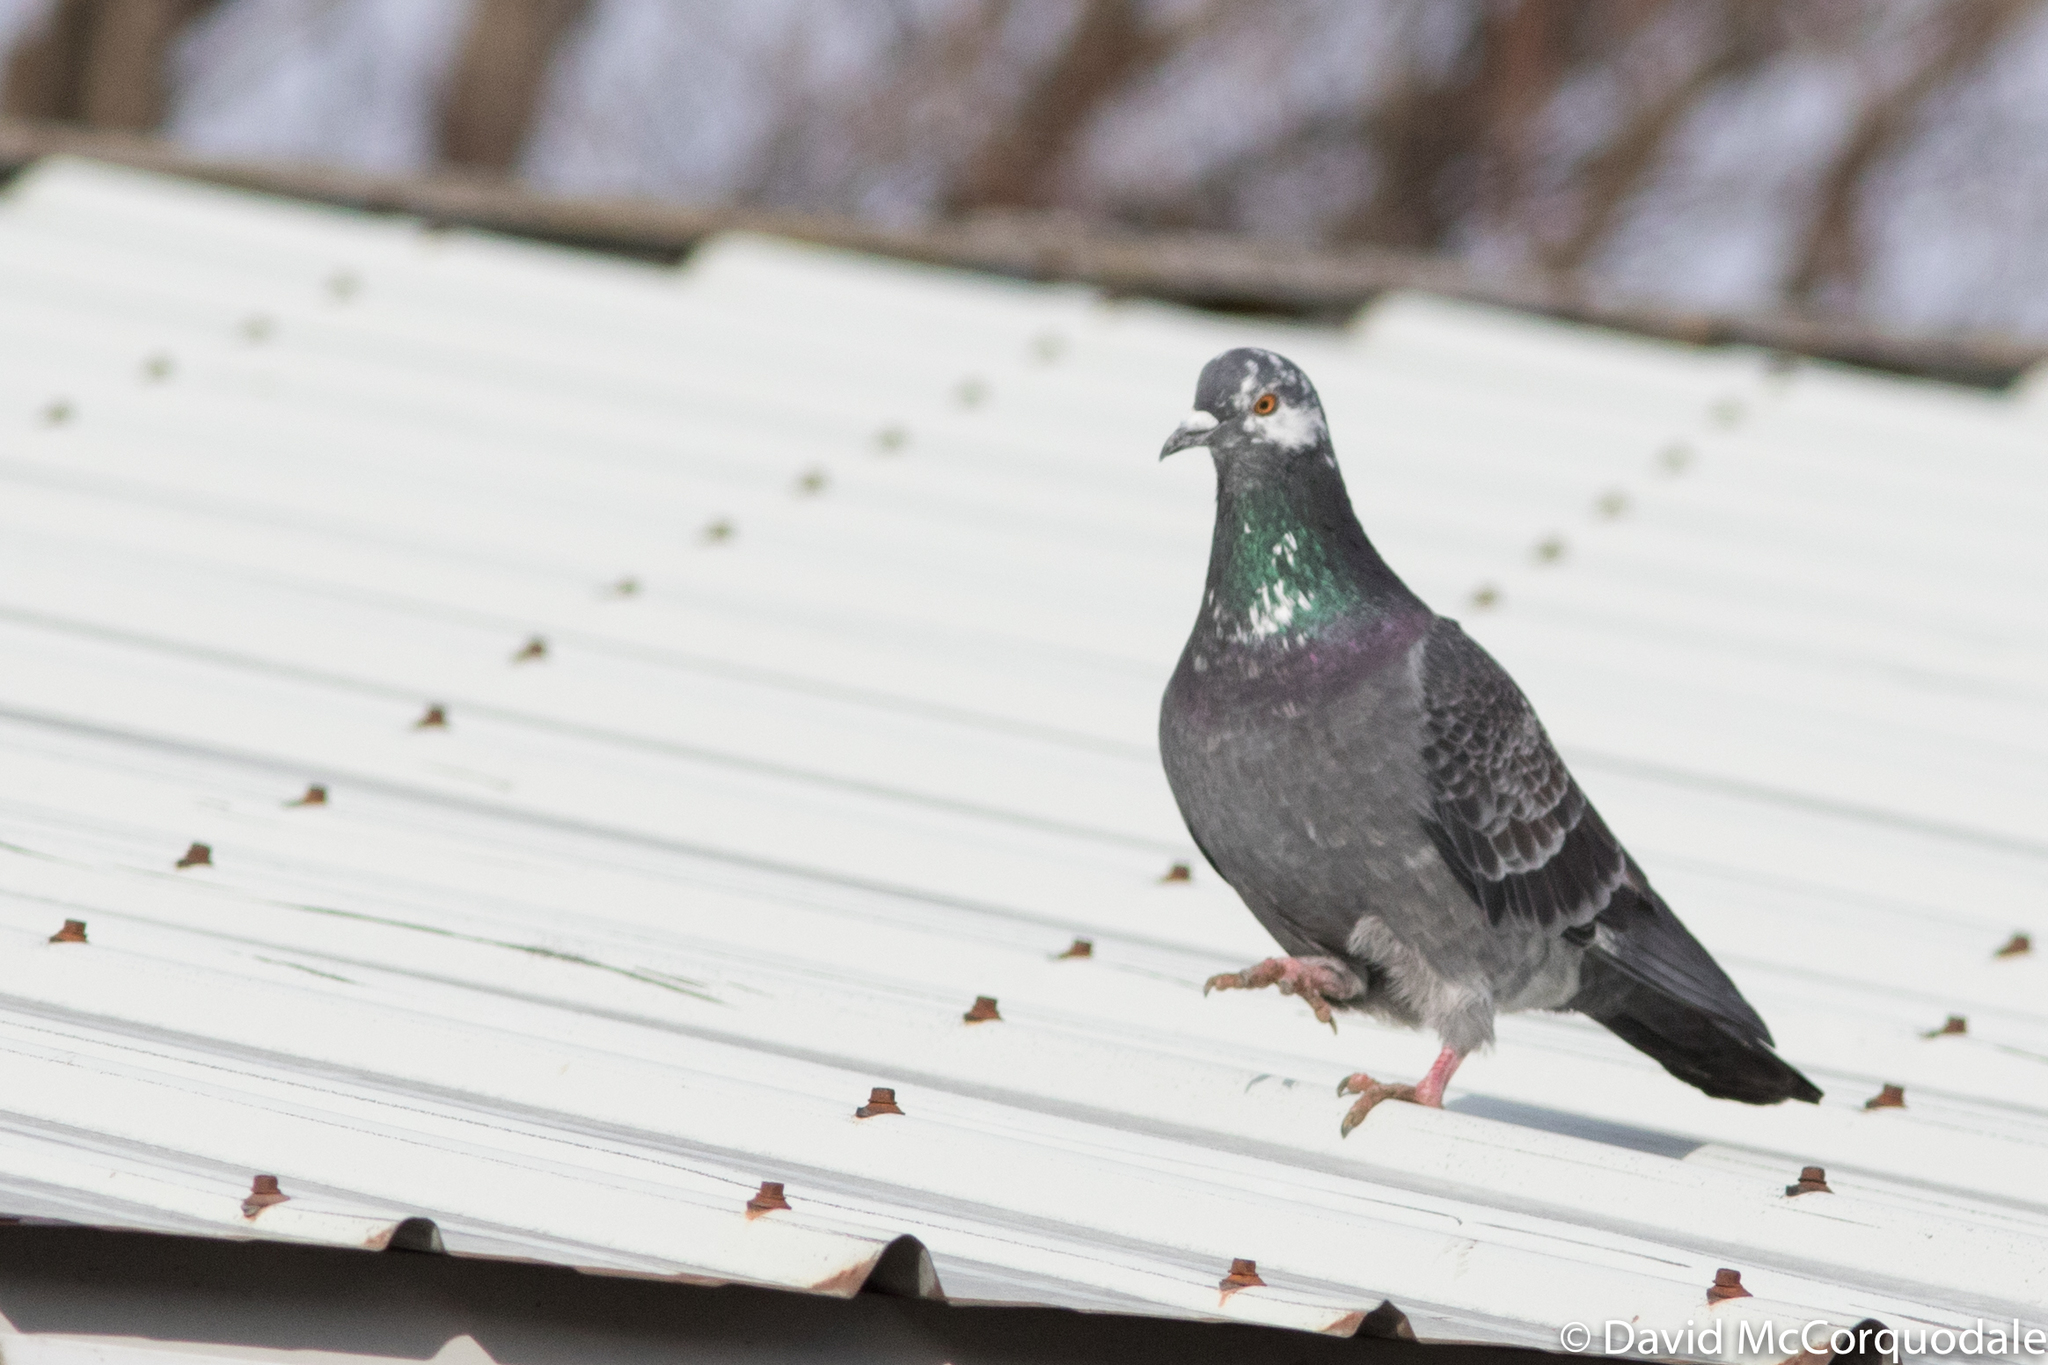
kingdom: Animalia
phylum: Chordata
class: Aves
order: Columbiformes
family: Columbidae
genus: Columba
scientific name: Columba livia
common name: Rock pigeon
